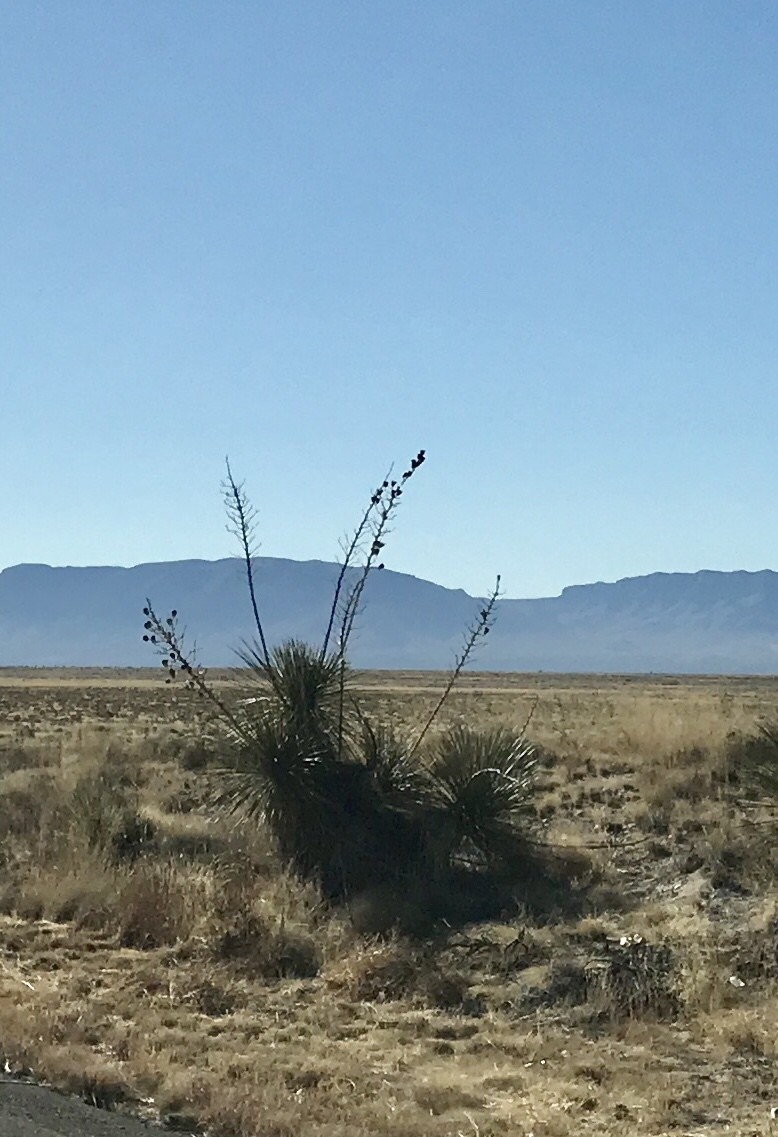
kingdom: Plantae
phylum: Tracheophyta
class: Liliopsida
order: Asparagales
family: Asparagaceae
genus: Yucca
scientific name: Yucca elata
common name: Palmella
